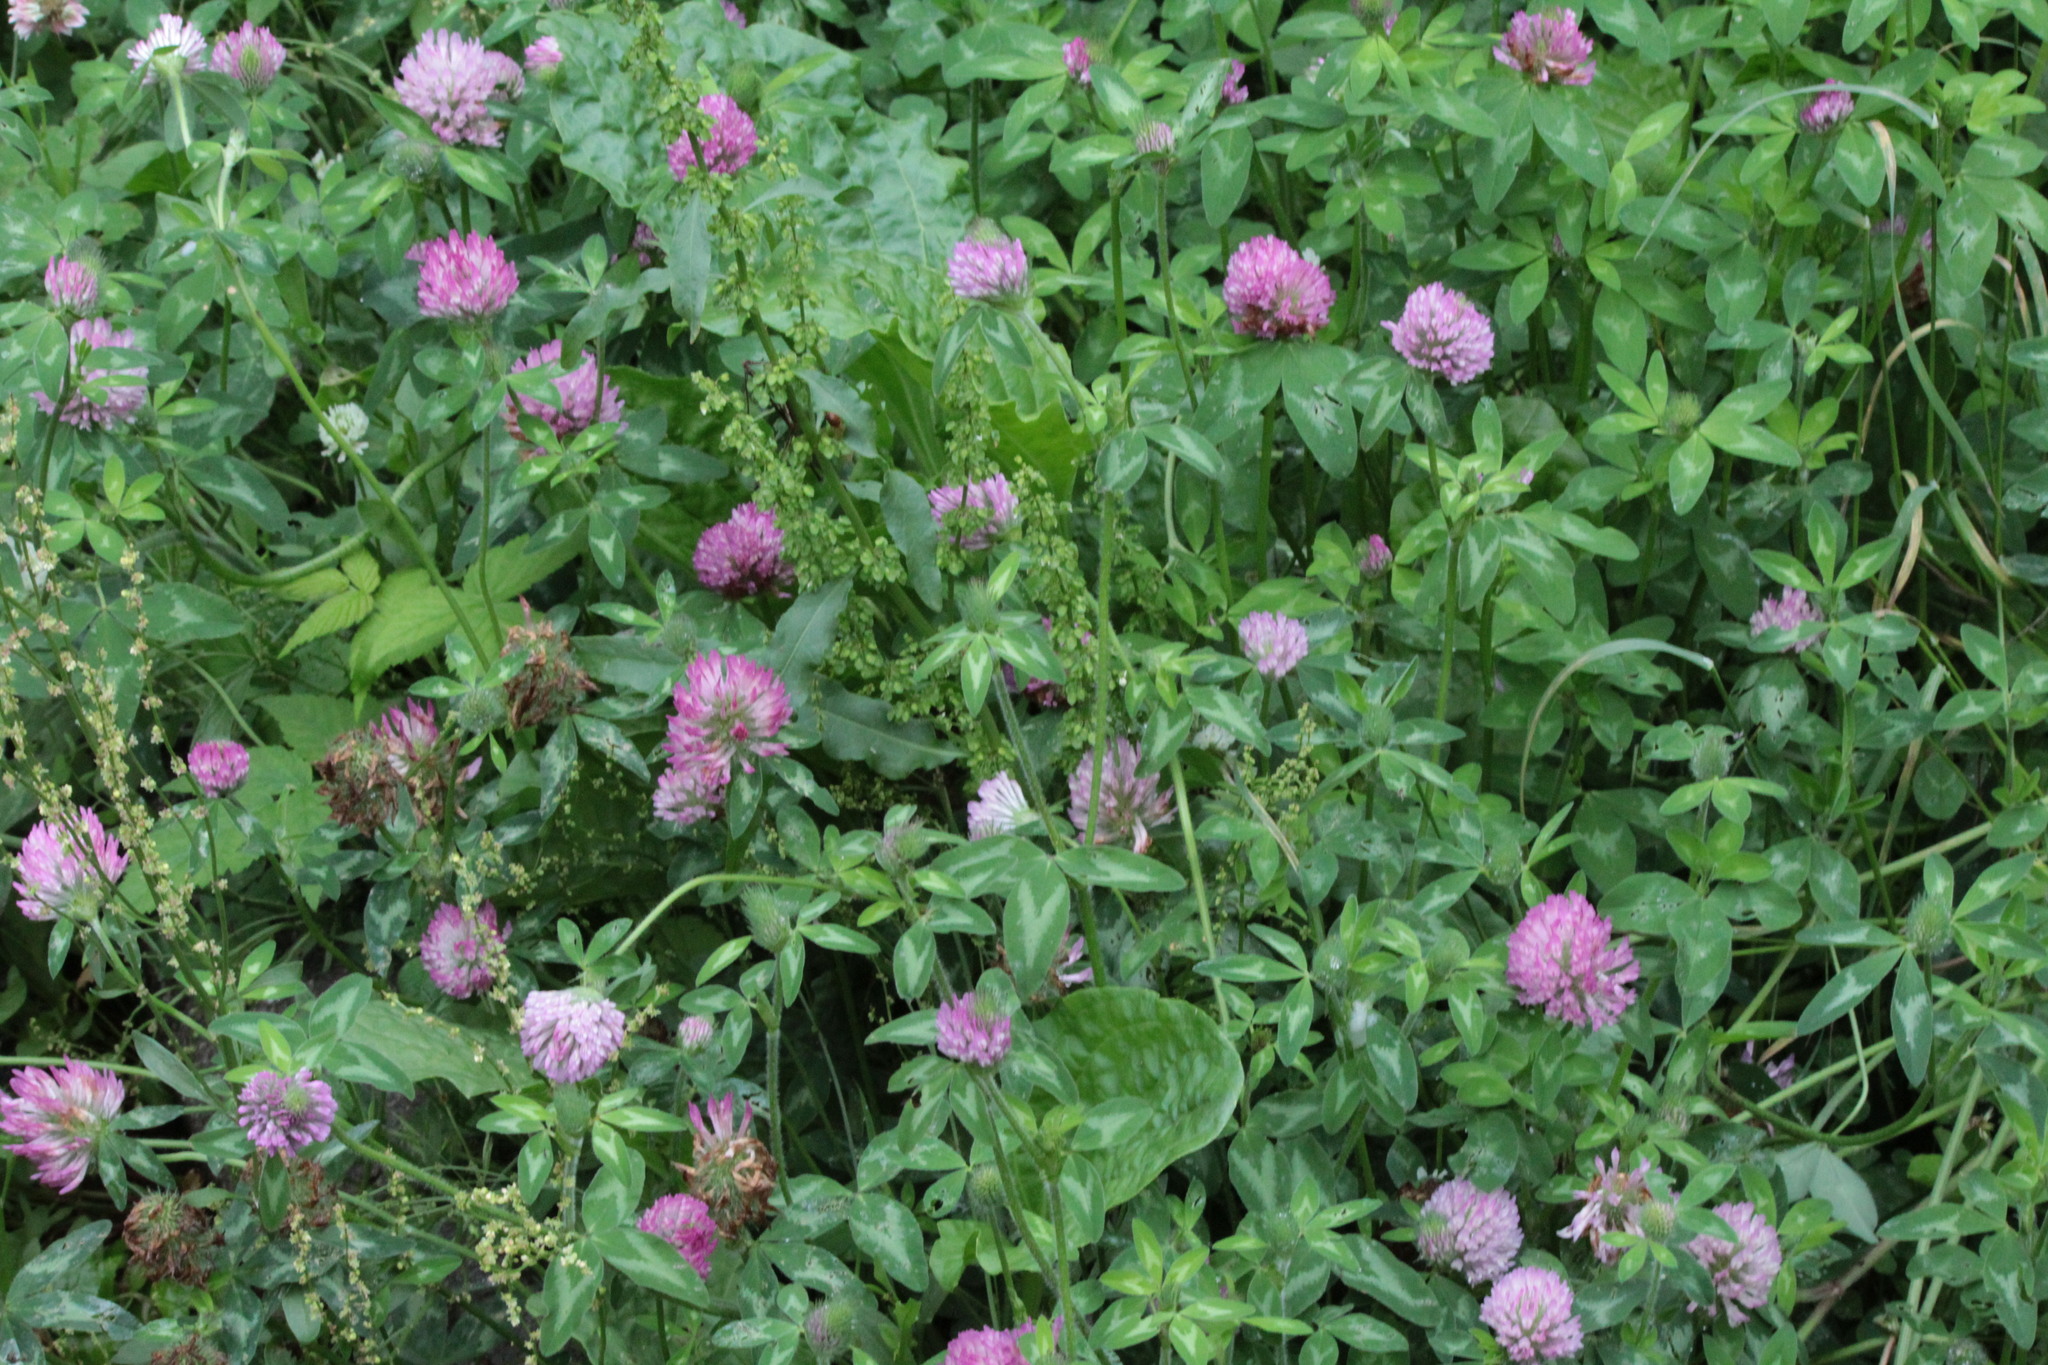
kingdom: Plantae
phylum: Tracheophyta
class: Magnoliopsida
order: Fabales
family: Fabaceae
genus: Trifolium
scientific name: Trifolium pratense
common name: Red clover
